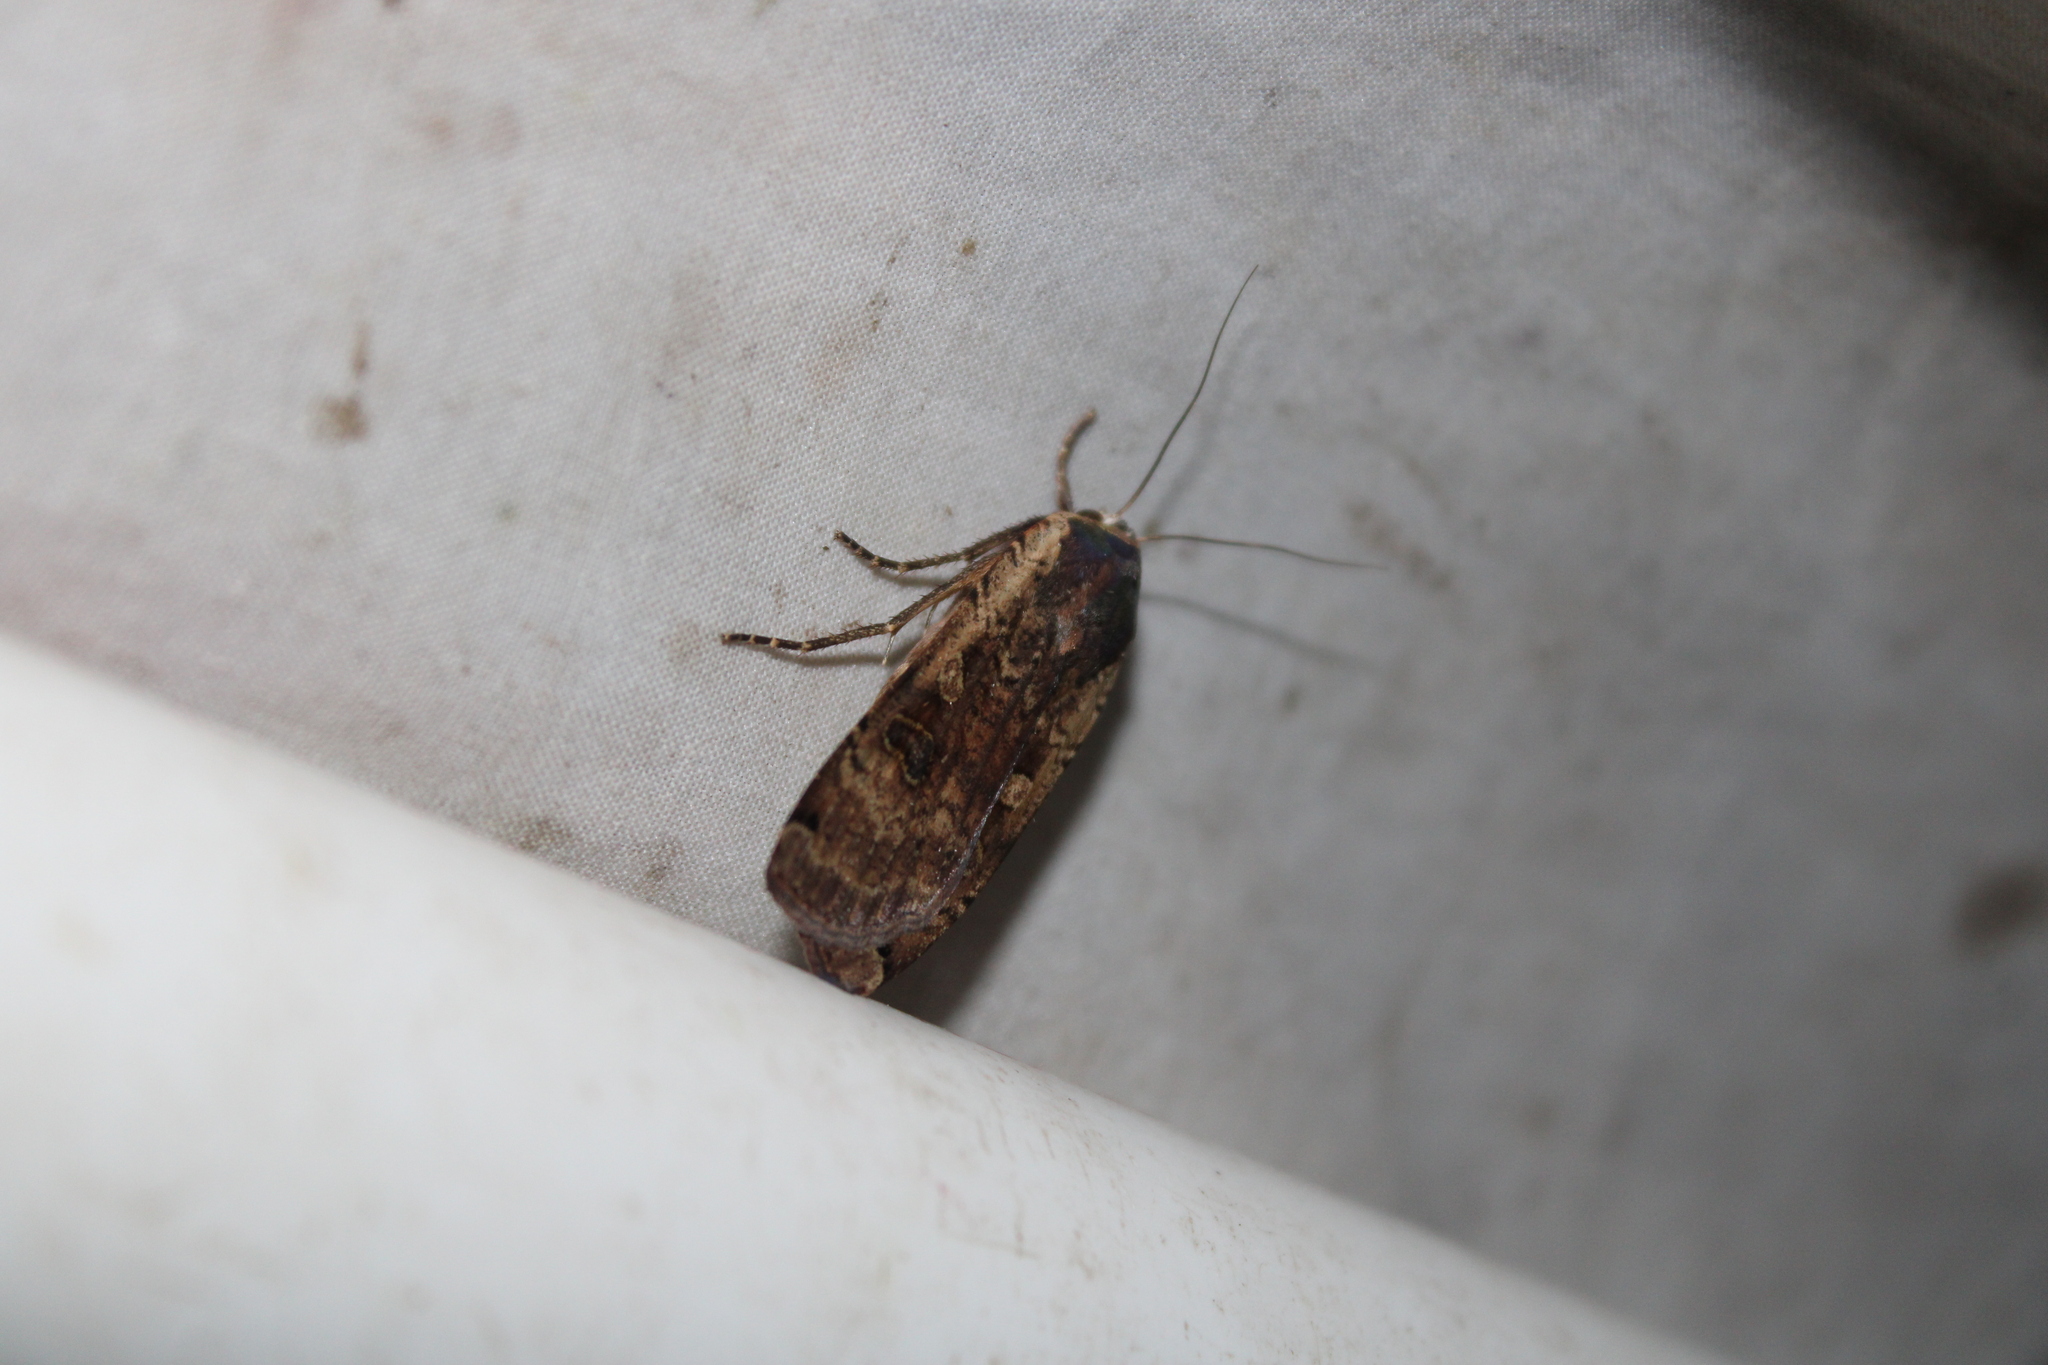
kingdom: Animalia
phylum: Arthropoda
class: Insecta
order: Lepidoptera
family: Noctuidae
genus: Noctua
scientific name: Noctua pronuba
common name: Large yellow underwing
